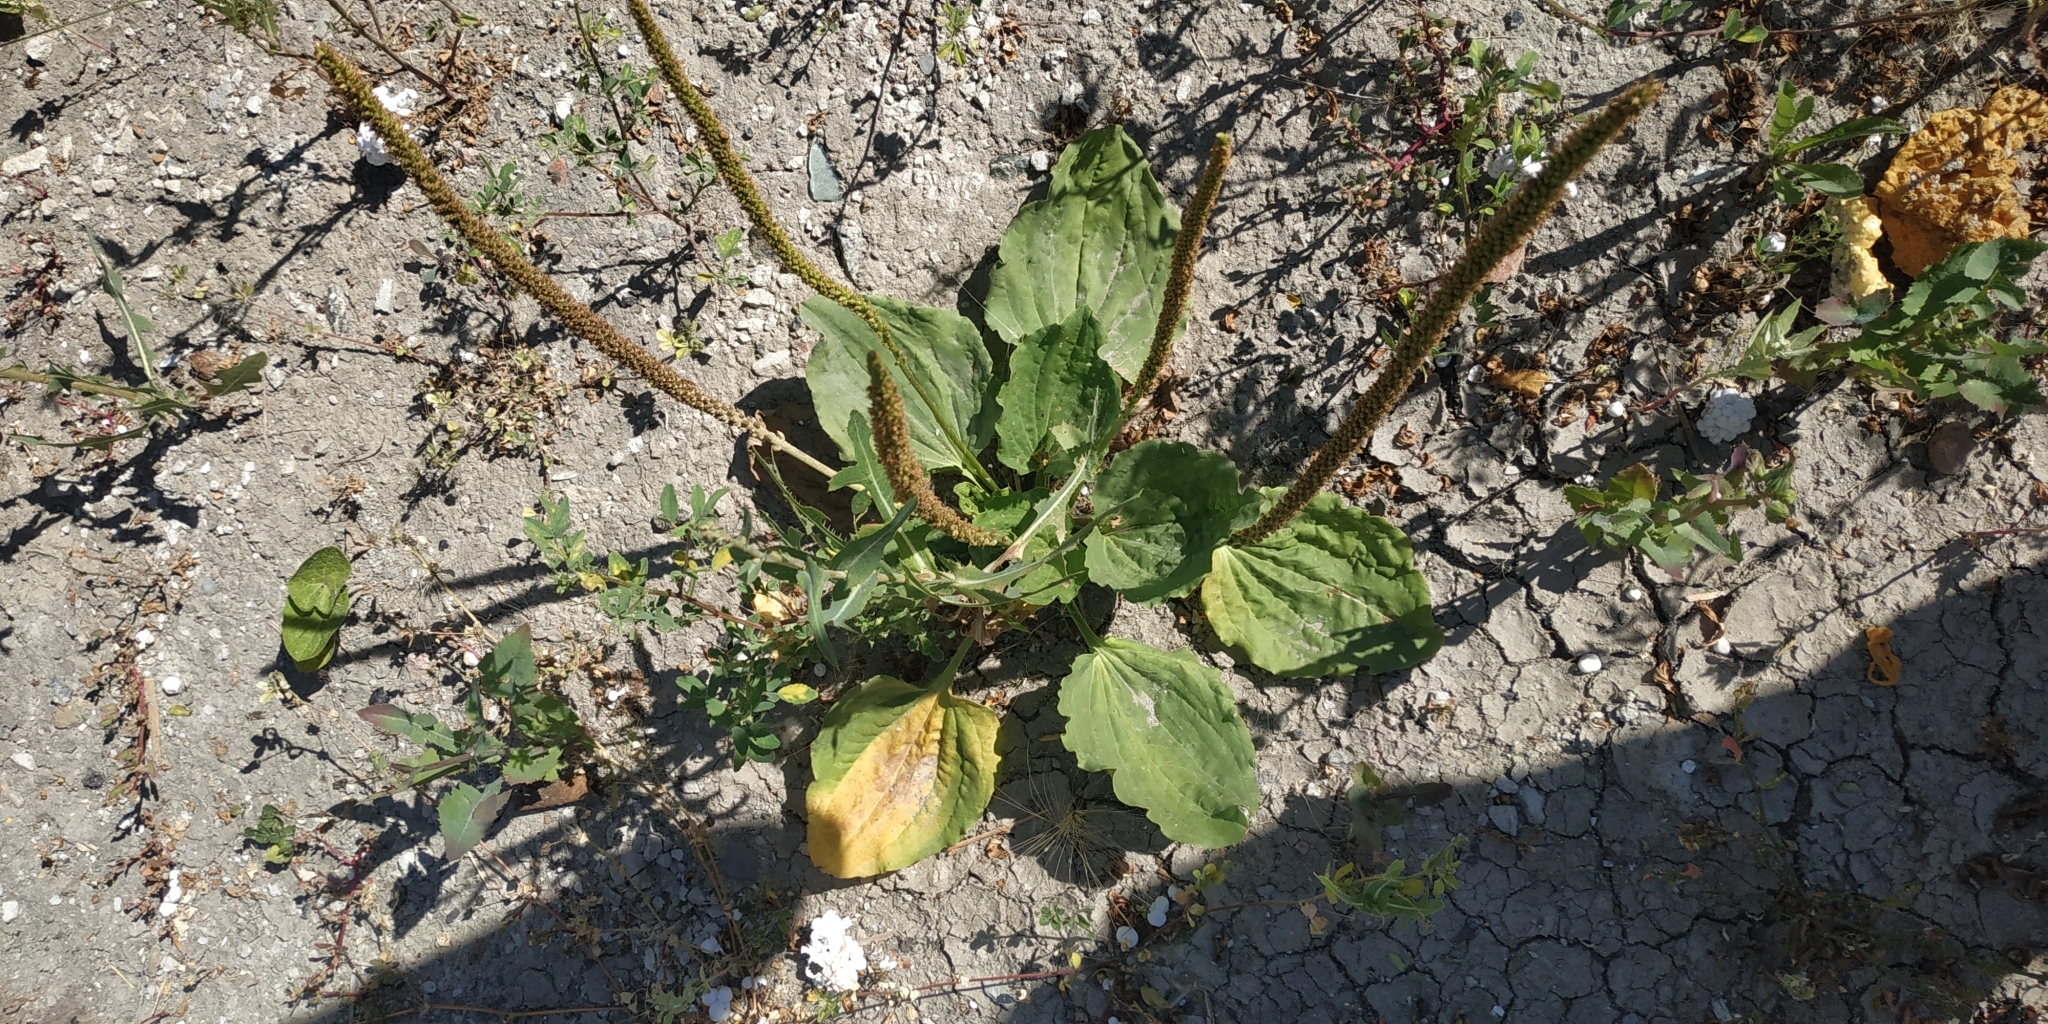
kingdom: Plantae
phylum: Tracheophyta
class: Magnoliopsida
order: Lamiales
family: Plantaginaceae
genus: Plantago
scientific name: Plantago major
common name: Common plantain
